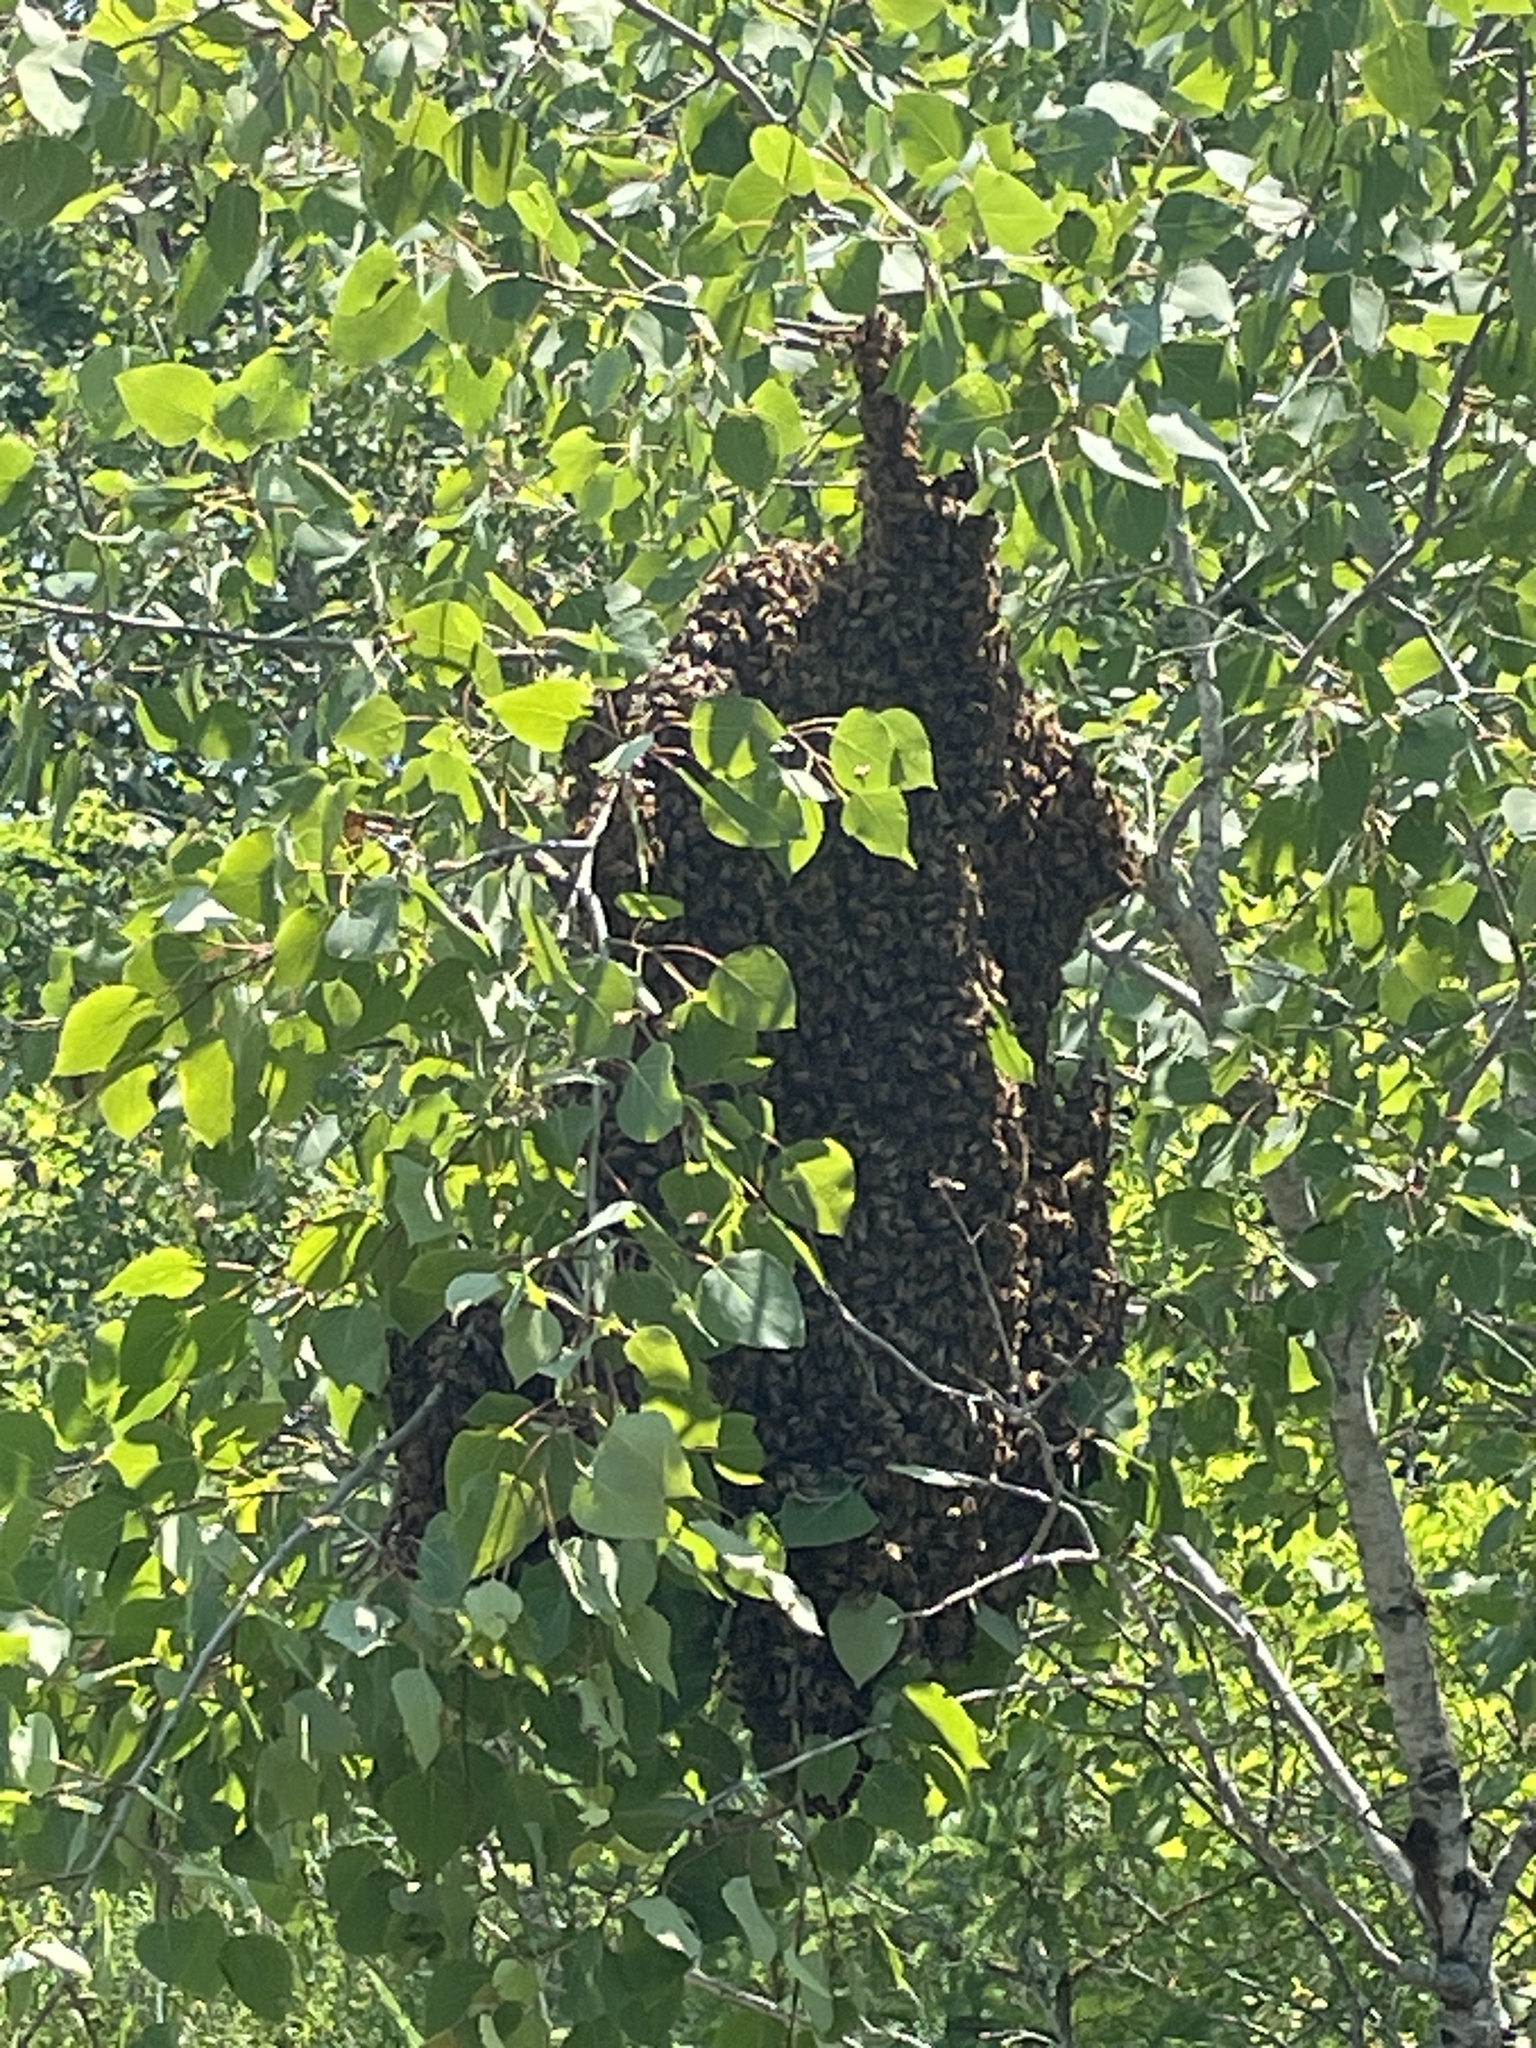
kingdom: Animalia
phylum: Arthropoda
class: Insecta
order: Hymenoptera
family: Apidae
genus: Apis
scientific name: Apis mellifera
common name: Honey bee
